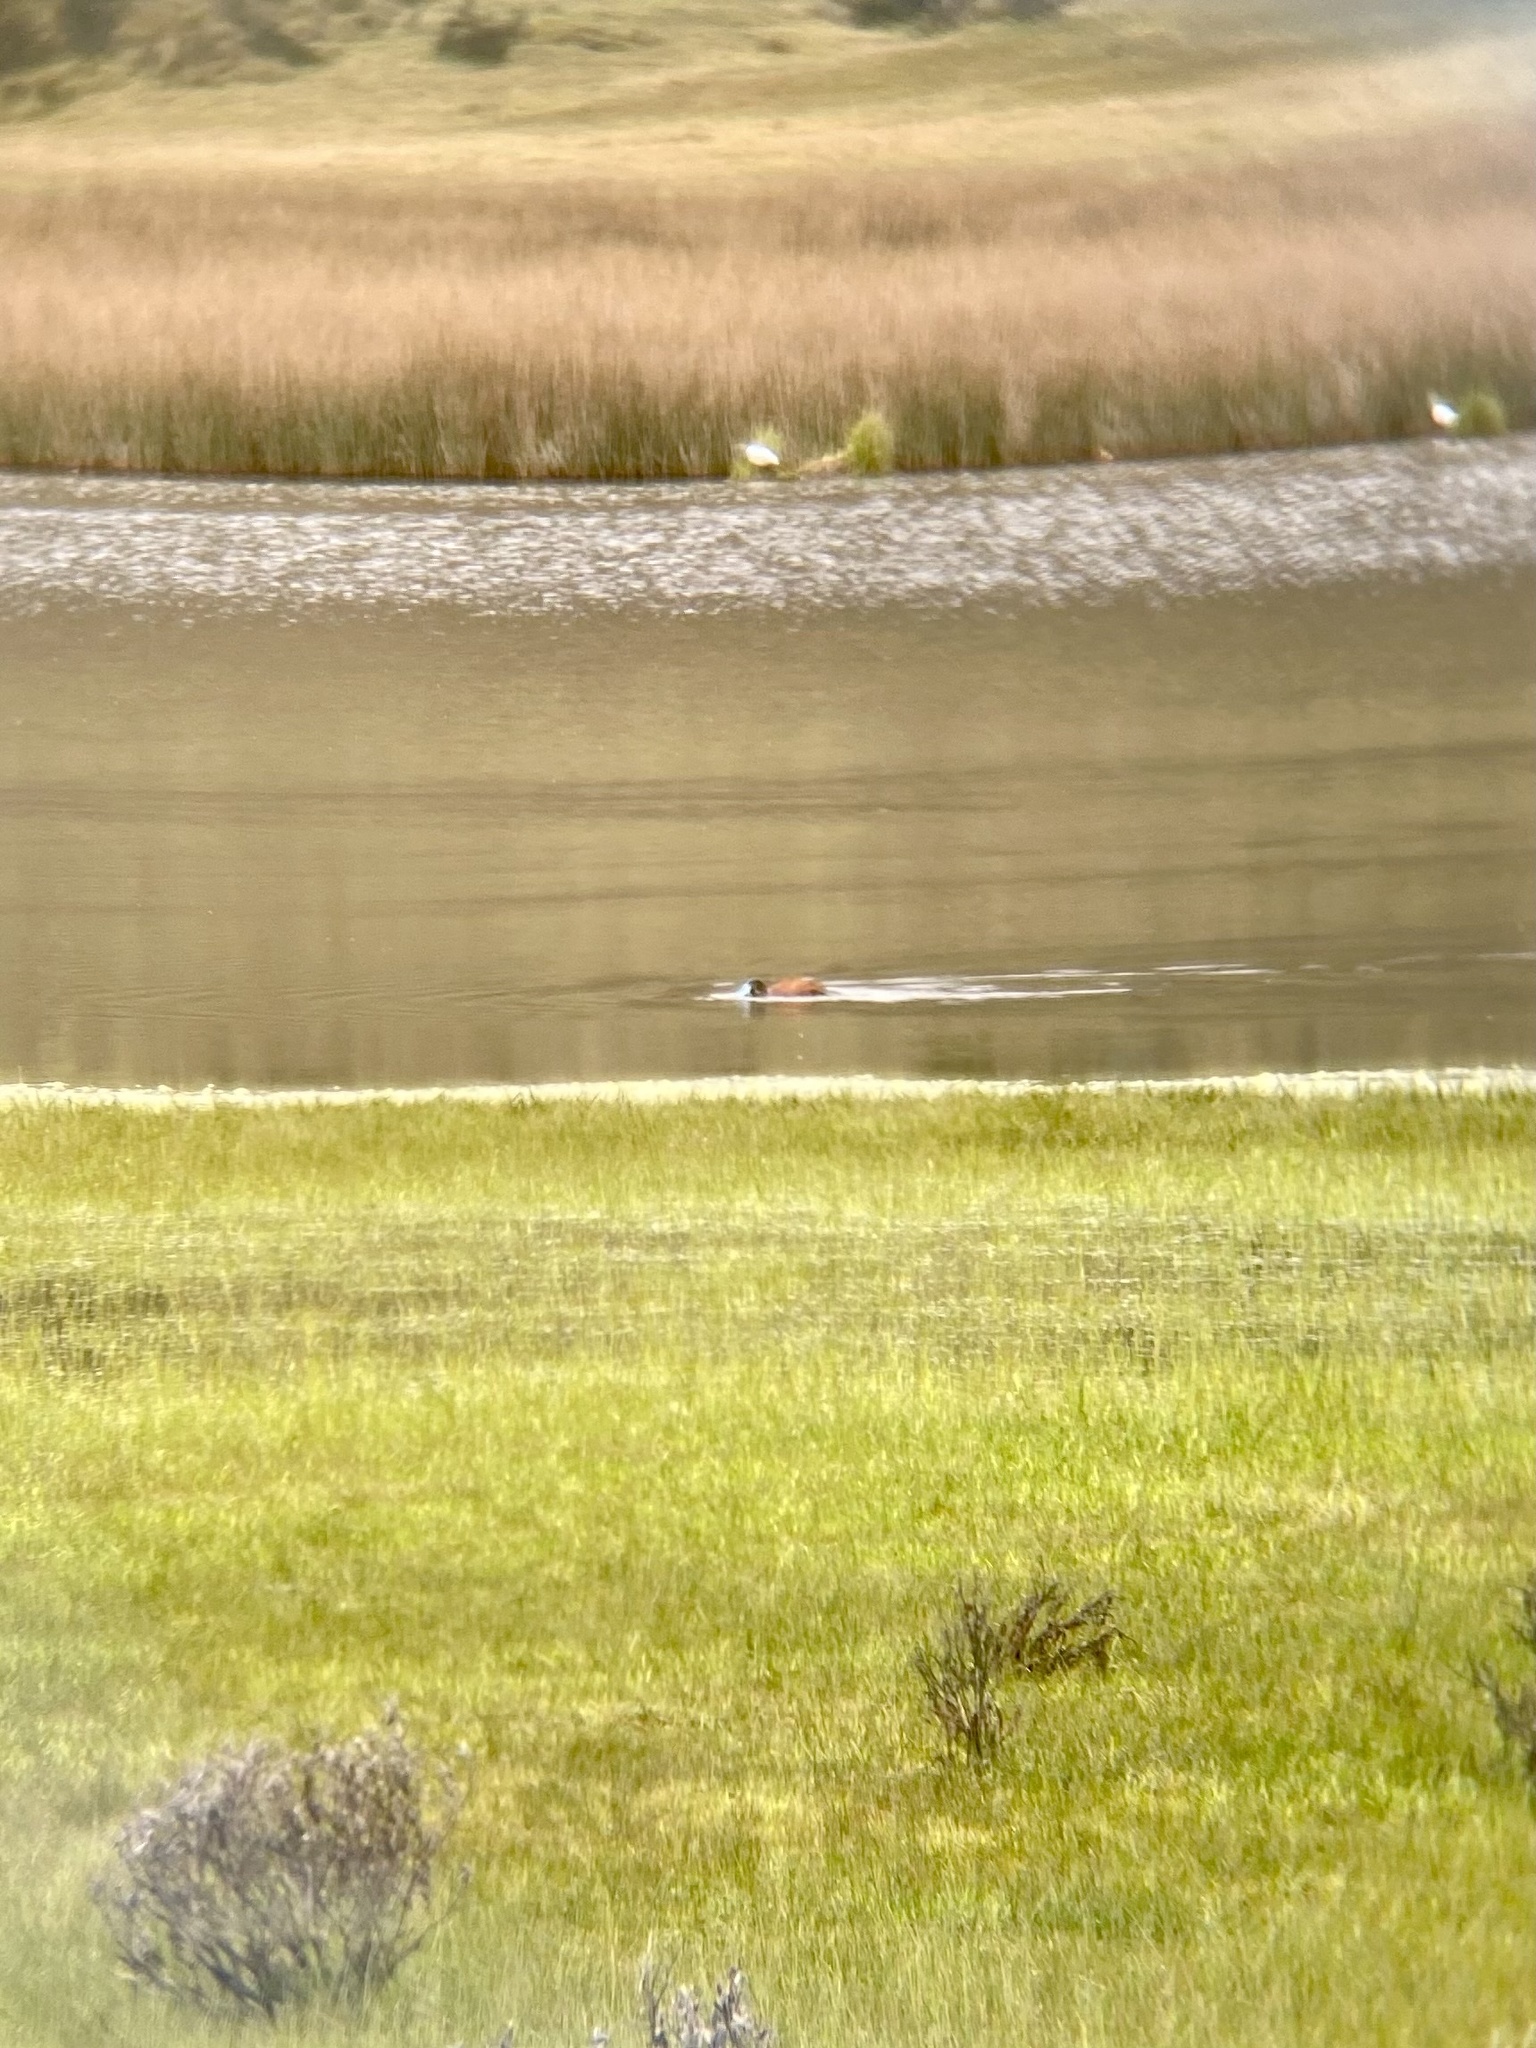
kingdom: Animalia
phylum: Chordata
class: Aves
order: Anseriformes
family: Anatidae
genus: Oxyura
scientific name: Oxyura ferruginea
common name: Andean duck
